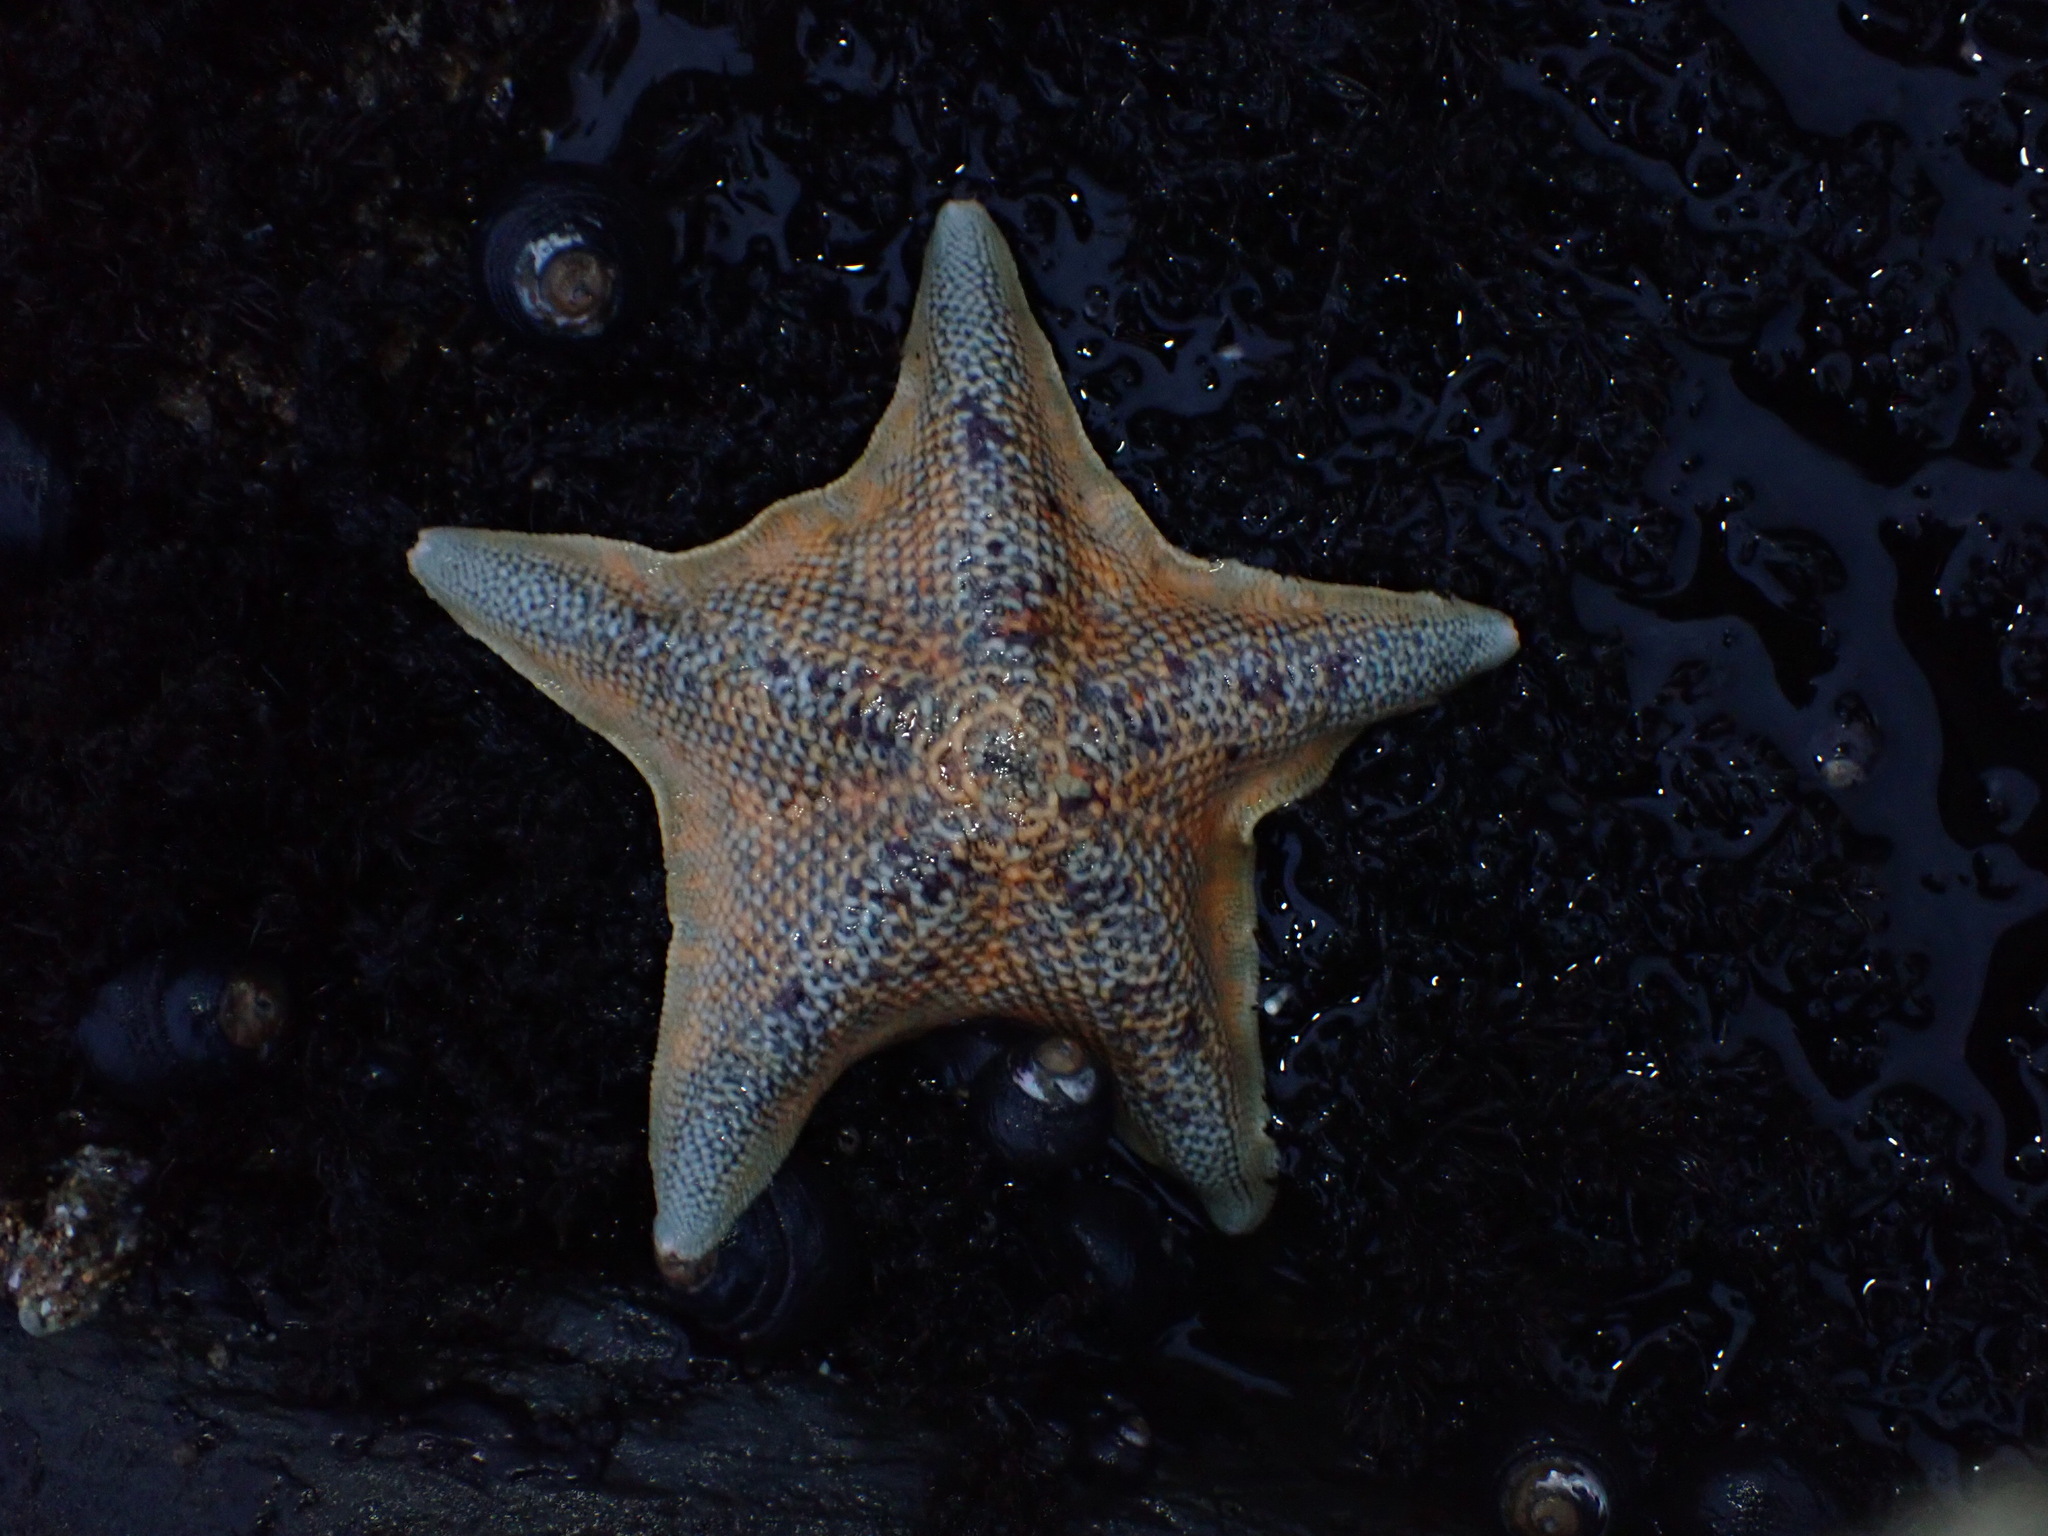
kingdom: Animalia
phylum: Echinodermata
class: Asteroidea
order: Valvatida
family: Asterinidae
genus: Patiria
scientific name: Patiria miniata
